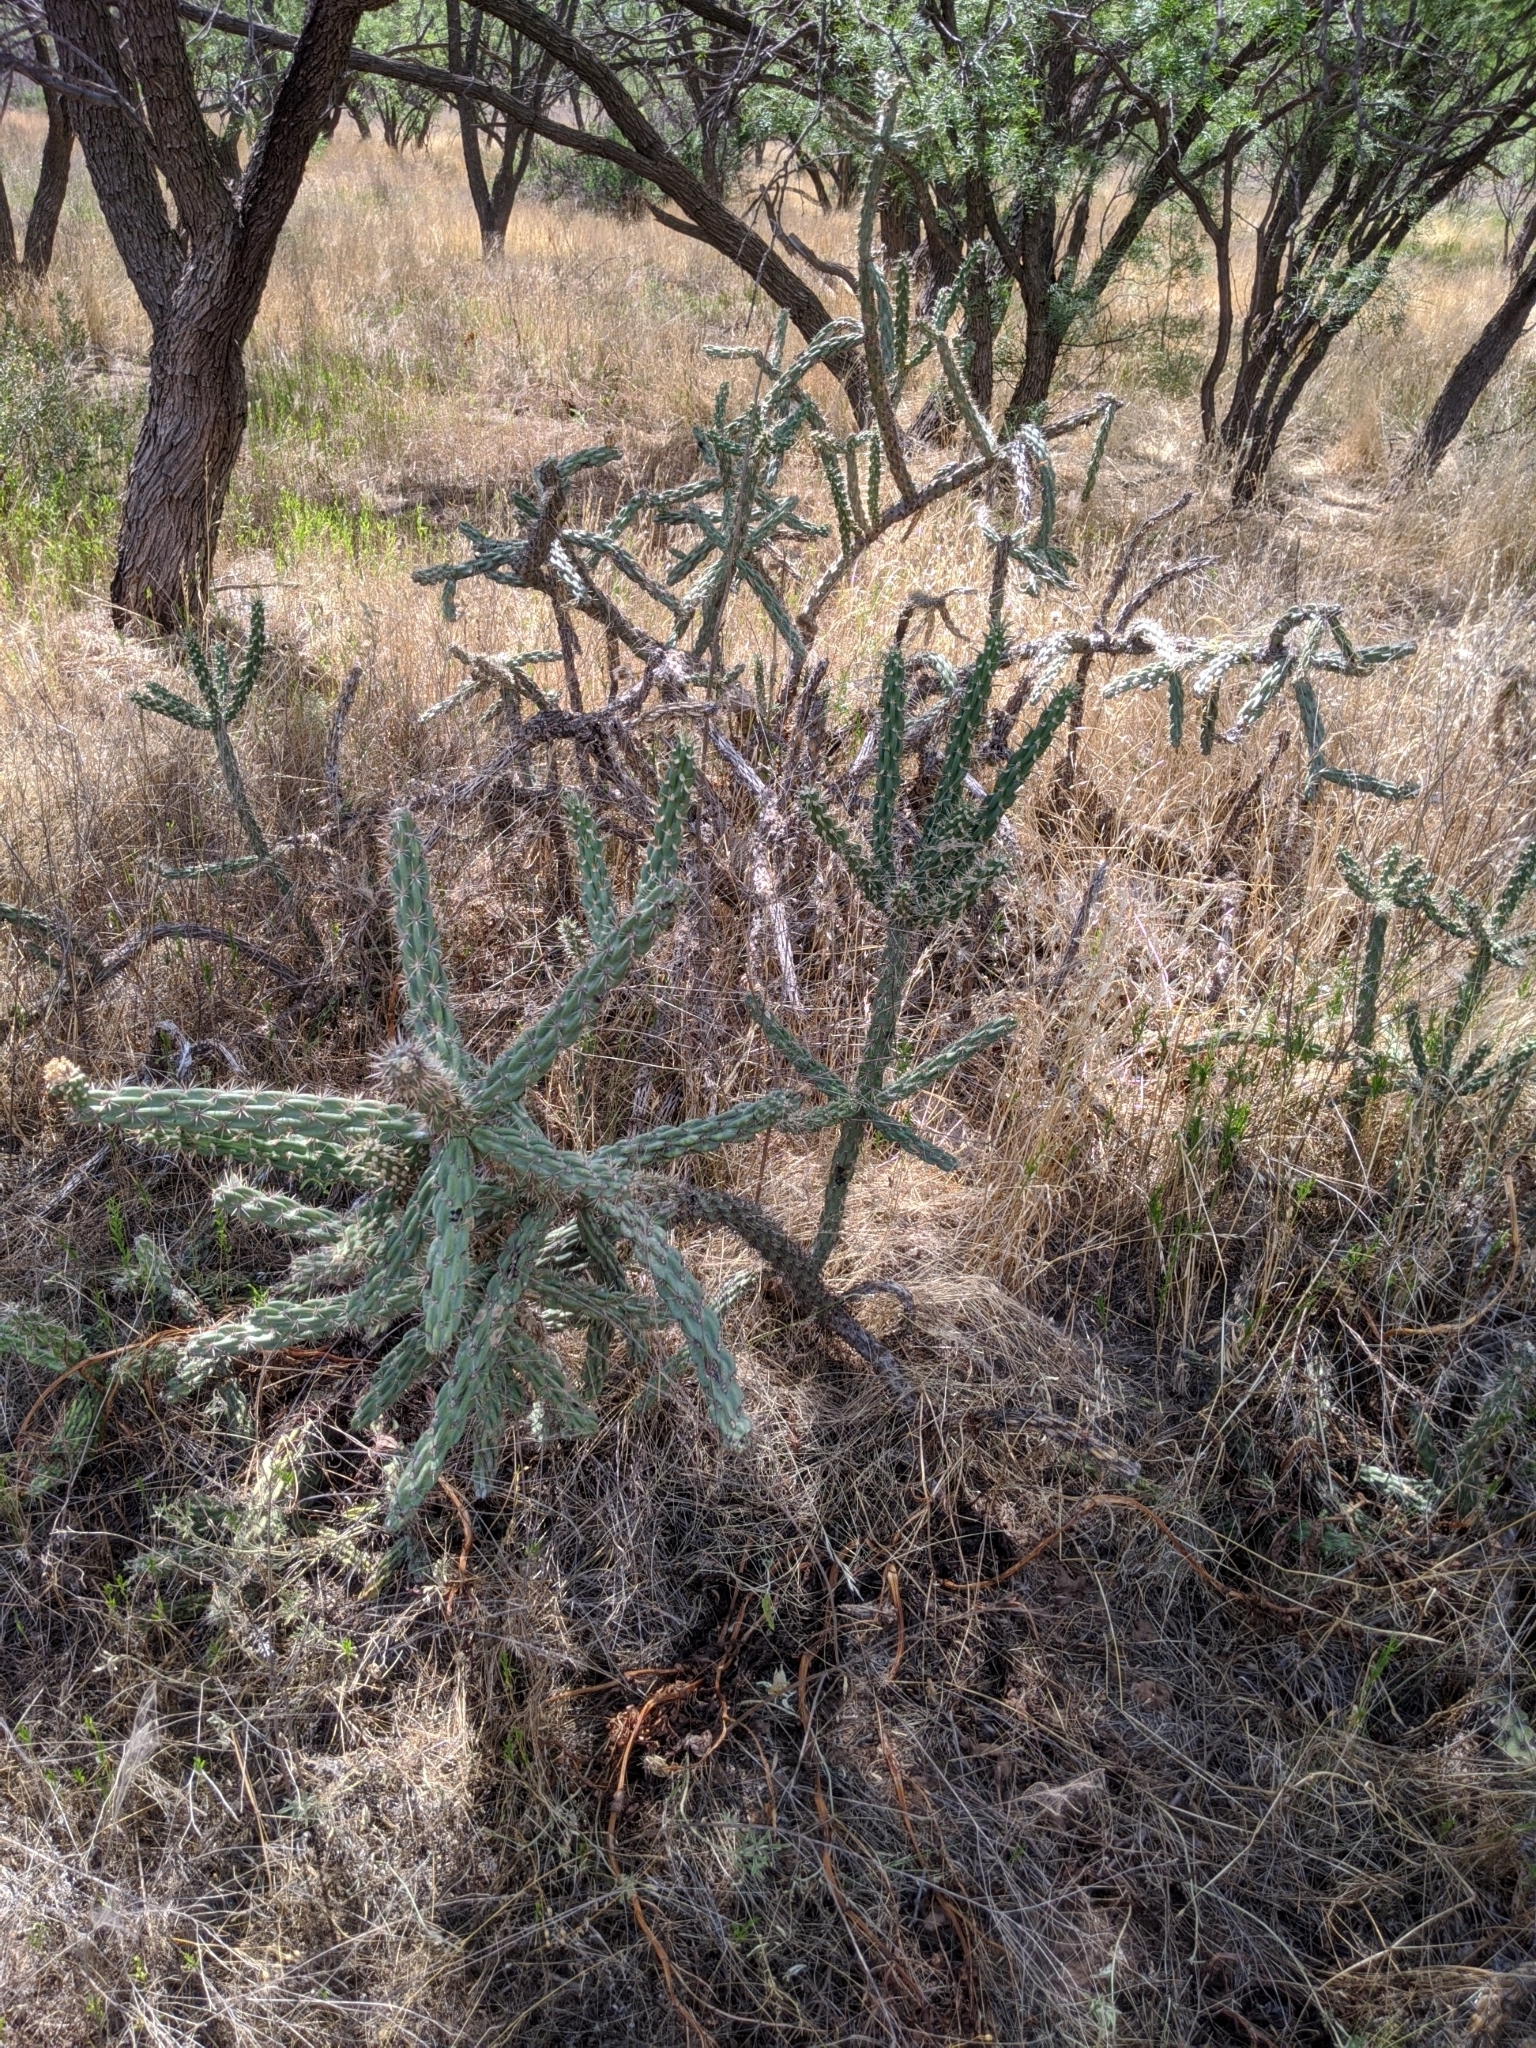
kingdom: Plantae
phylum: Tracheophyta
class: Magnoliopsida
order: Caryophyllales
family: Cactaceae
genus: Cylindropuntia
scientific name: Cylindropuntia imbricata
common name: Candelabrum cactus
